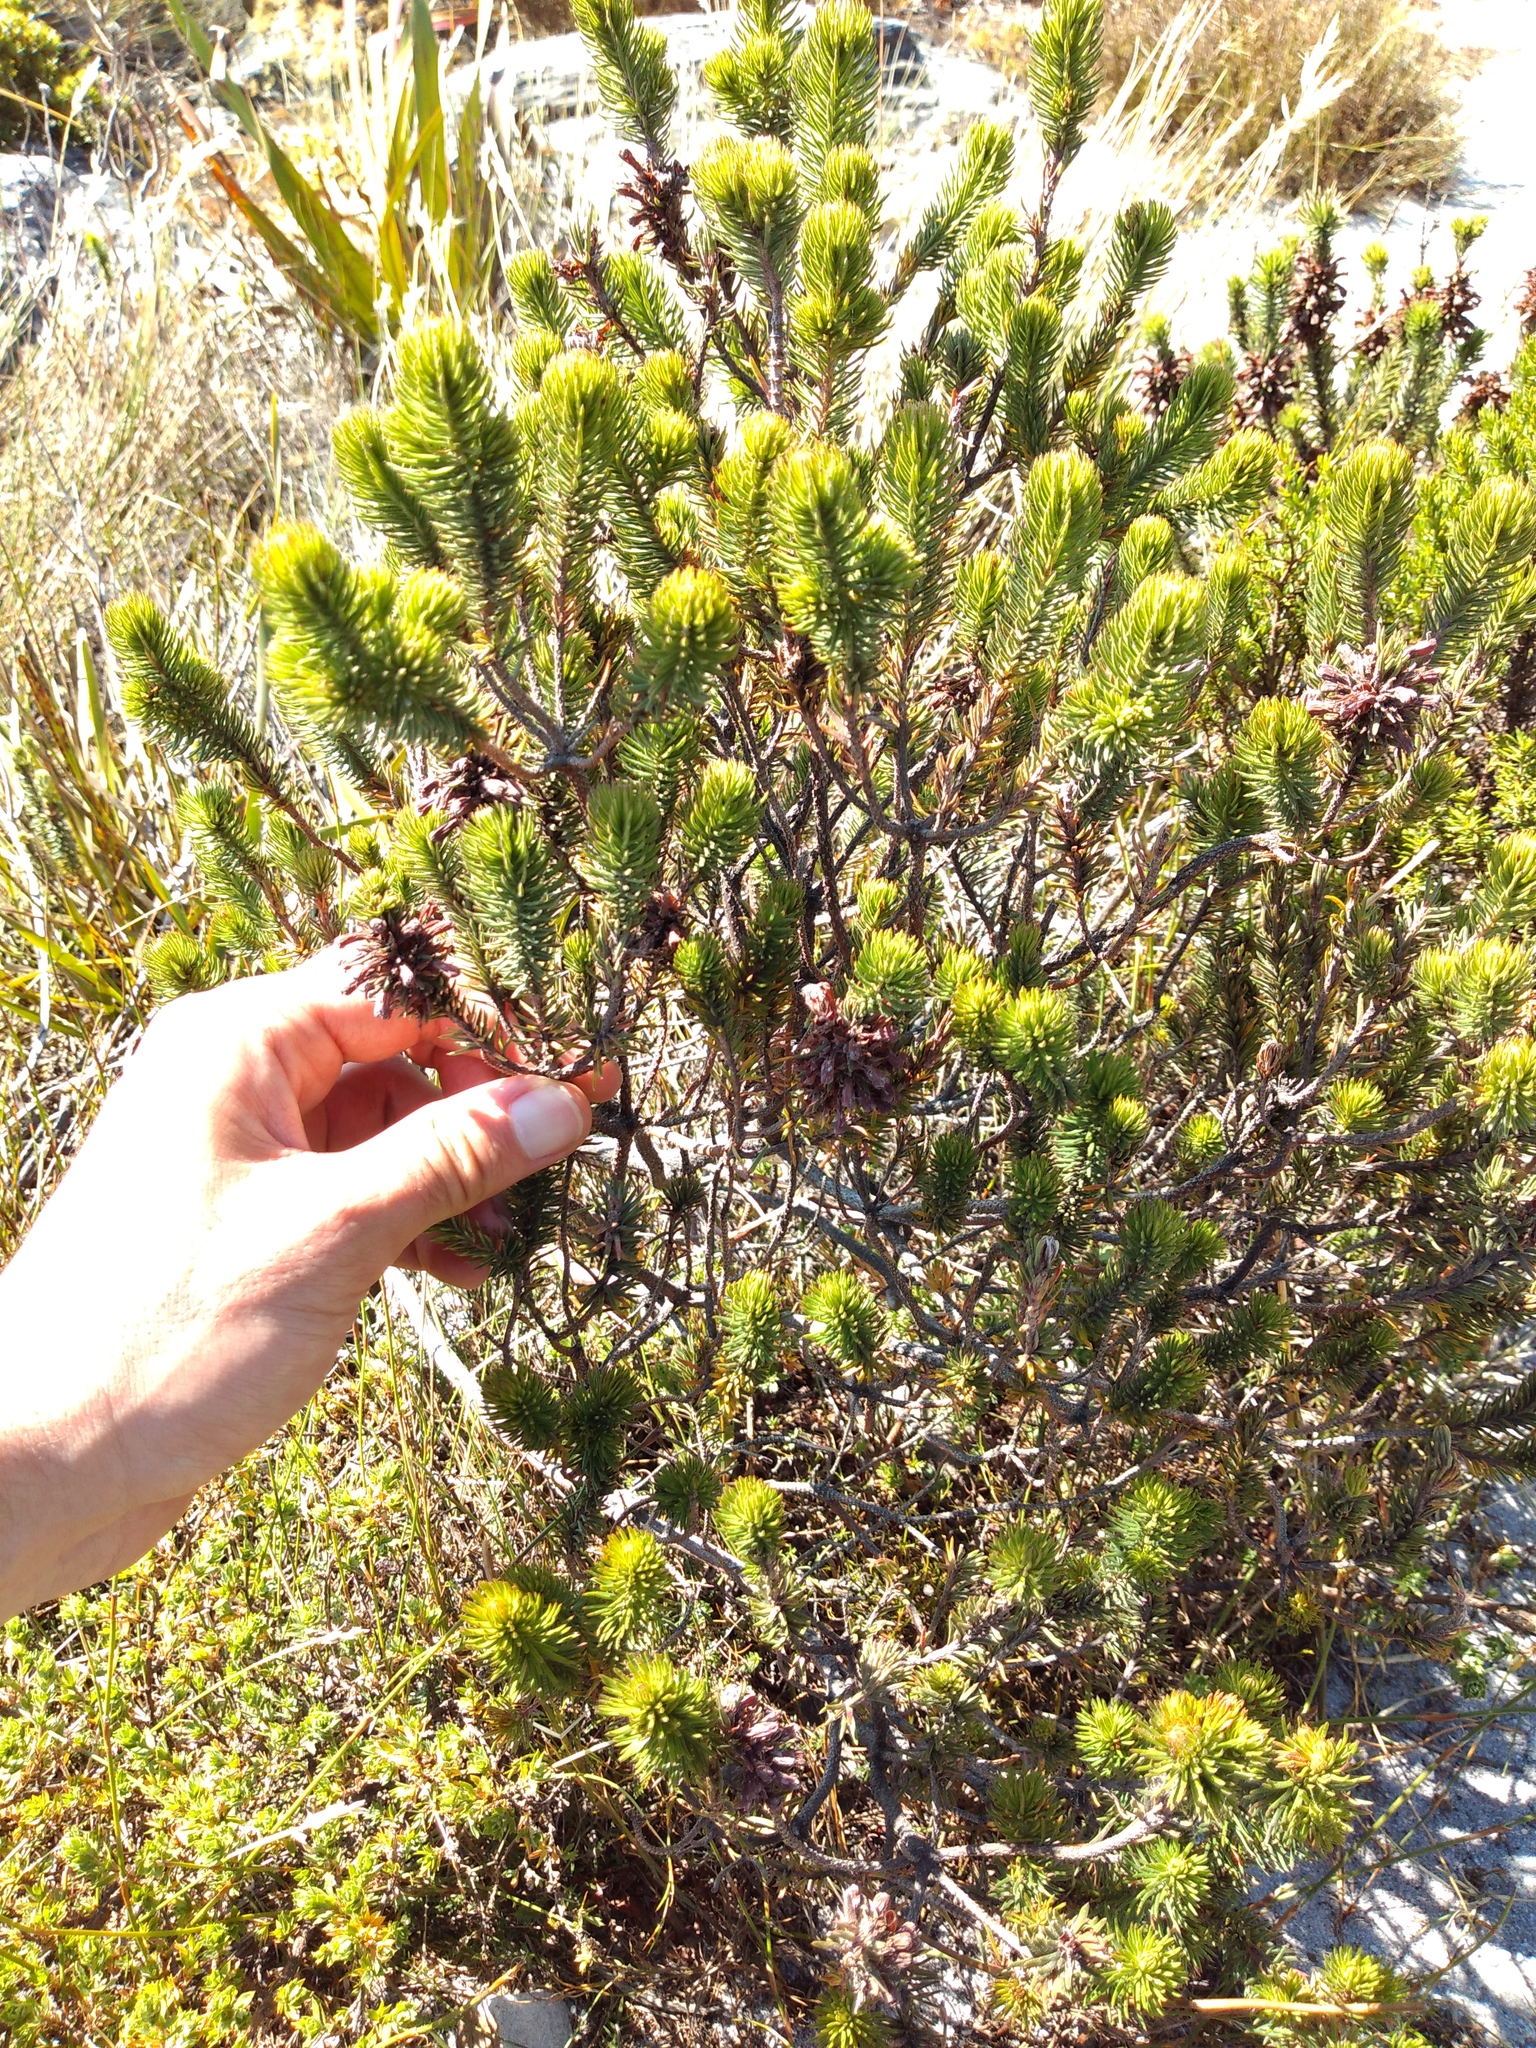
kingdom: Plantae
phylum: Tracheophyta
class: Magnoliopsida
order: Ericales
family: Ericaceae
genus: Erica
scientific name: Erica abietina
